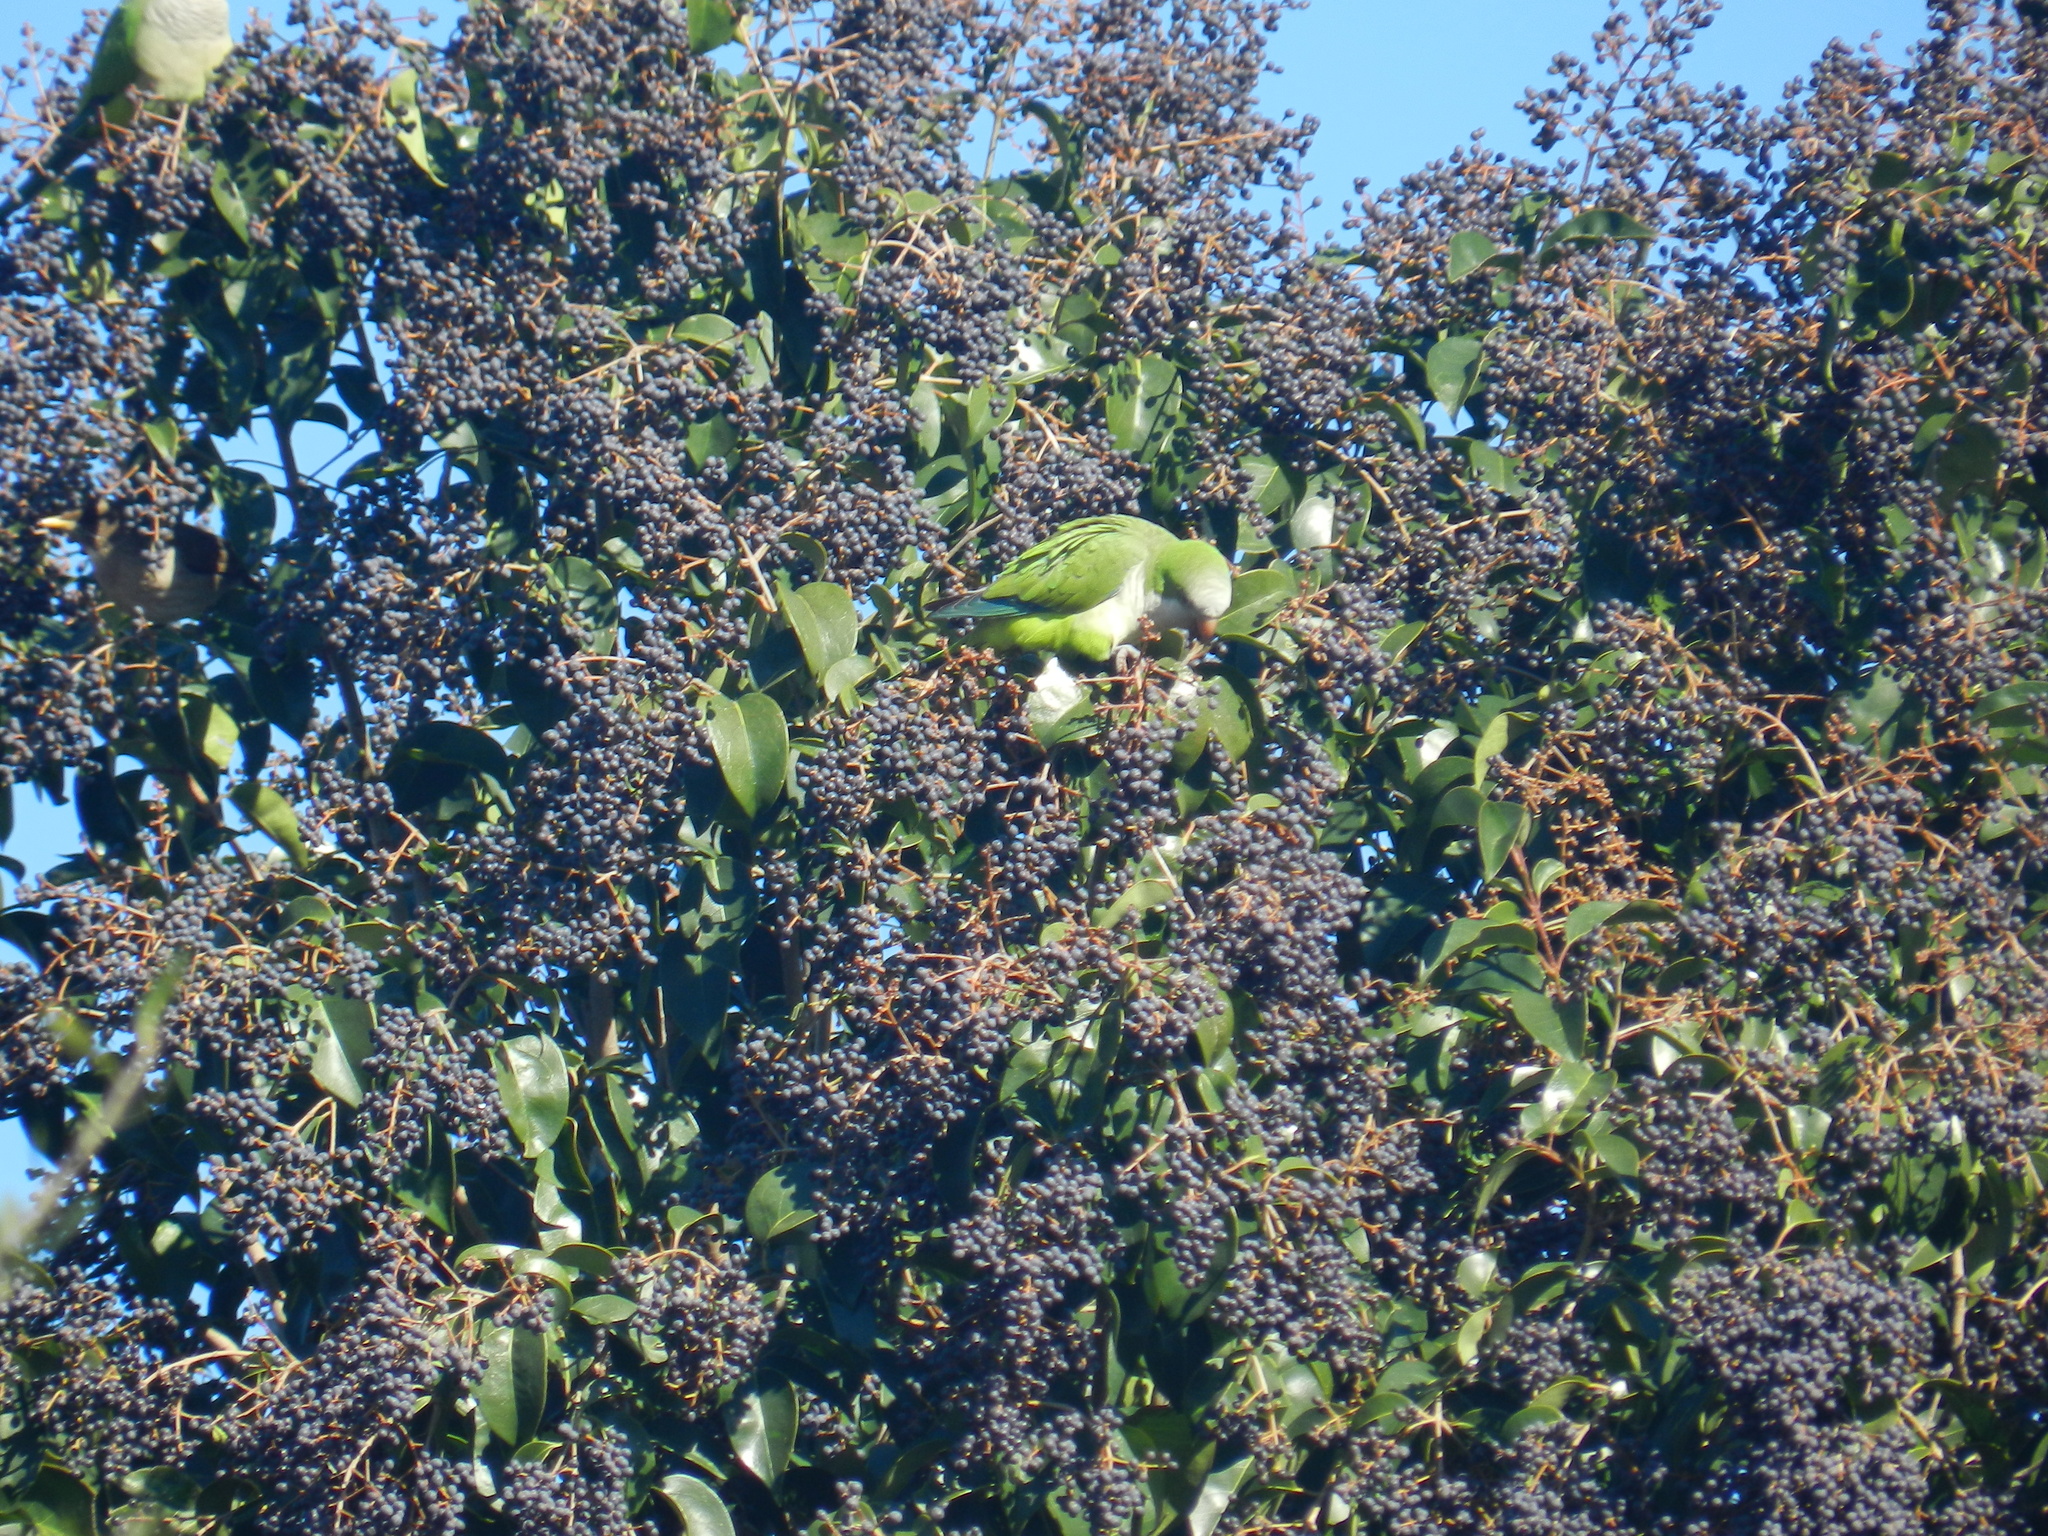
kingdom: Animalia
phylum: Chordata
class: Aves
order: Psittaciformes
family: Psittacidae
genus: Myiopsitta
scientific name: Myiopsitta monachus
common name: Monk parakeet
